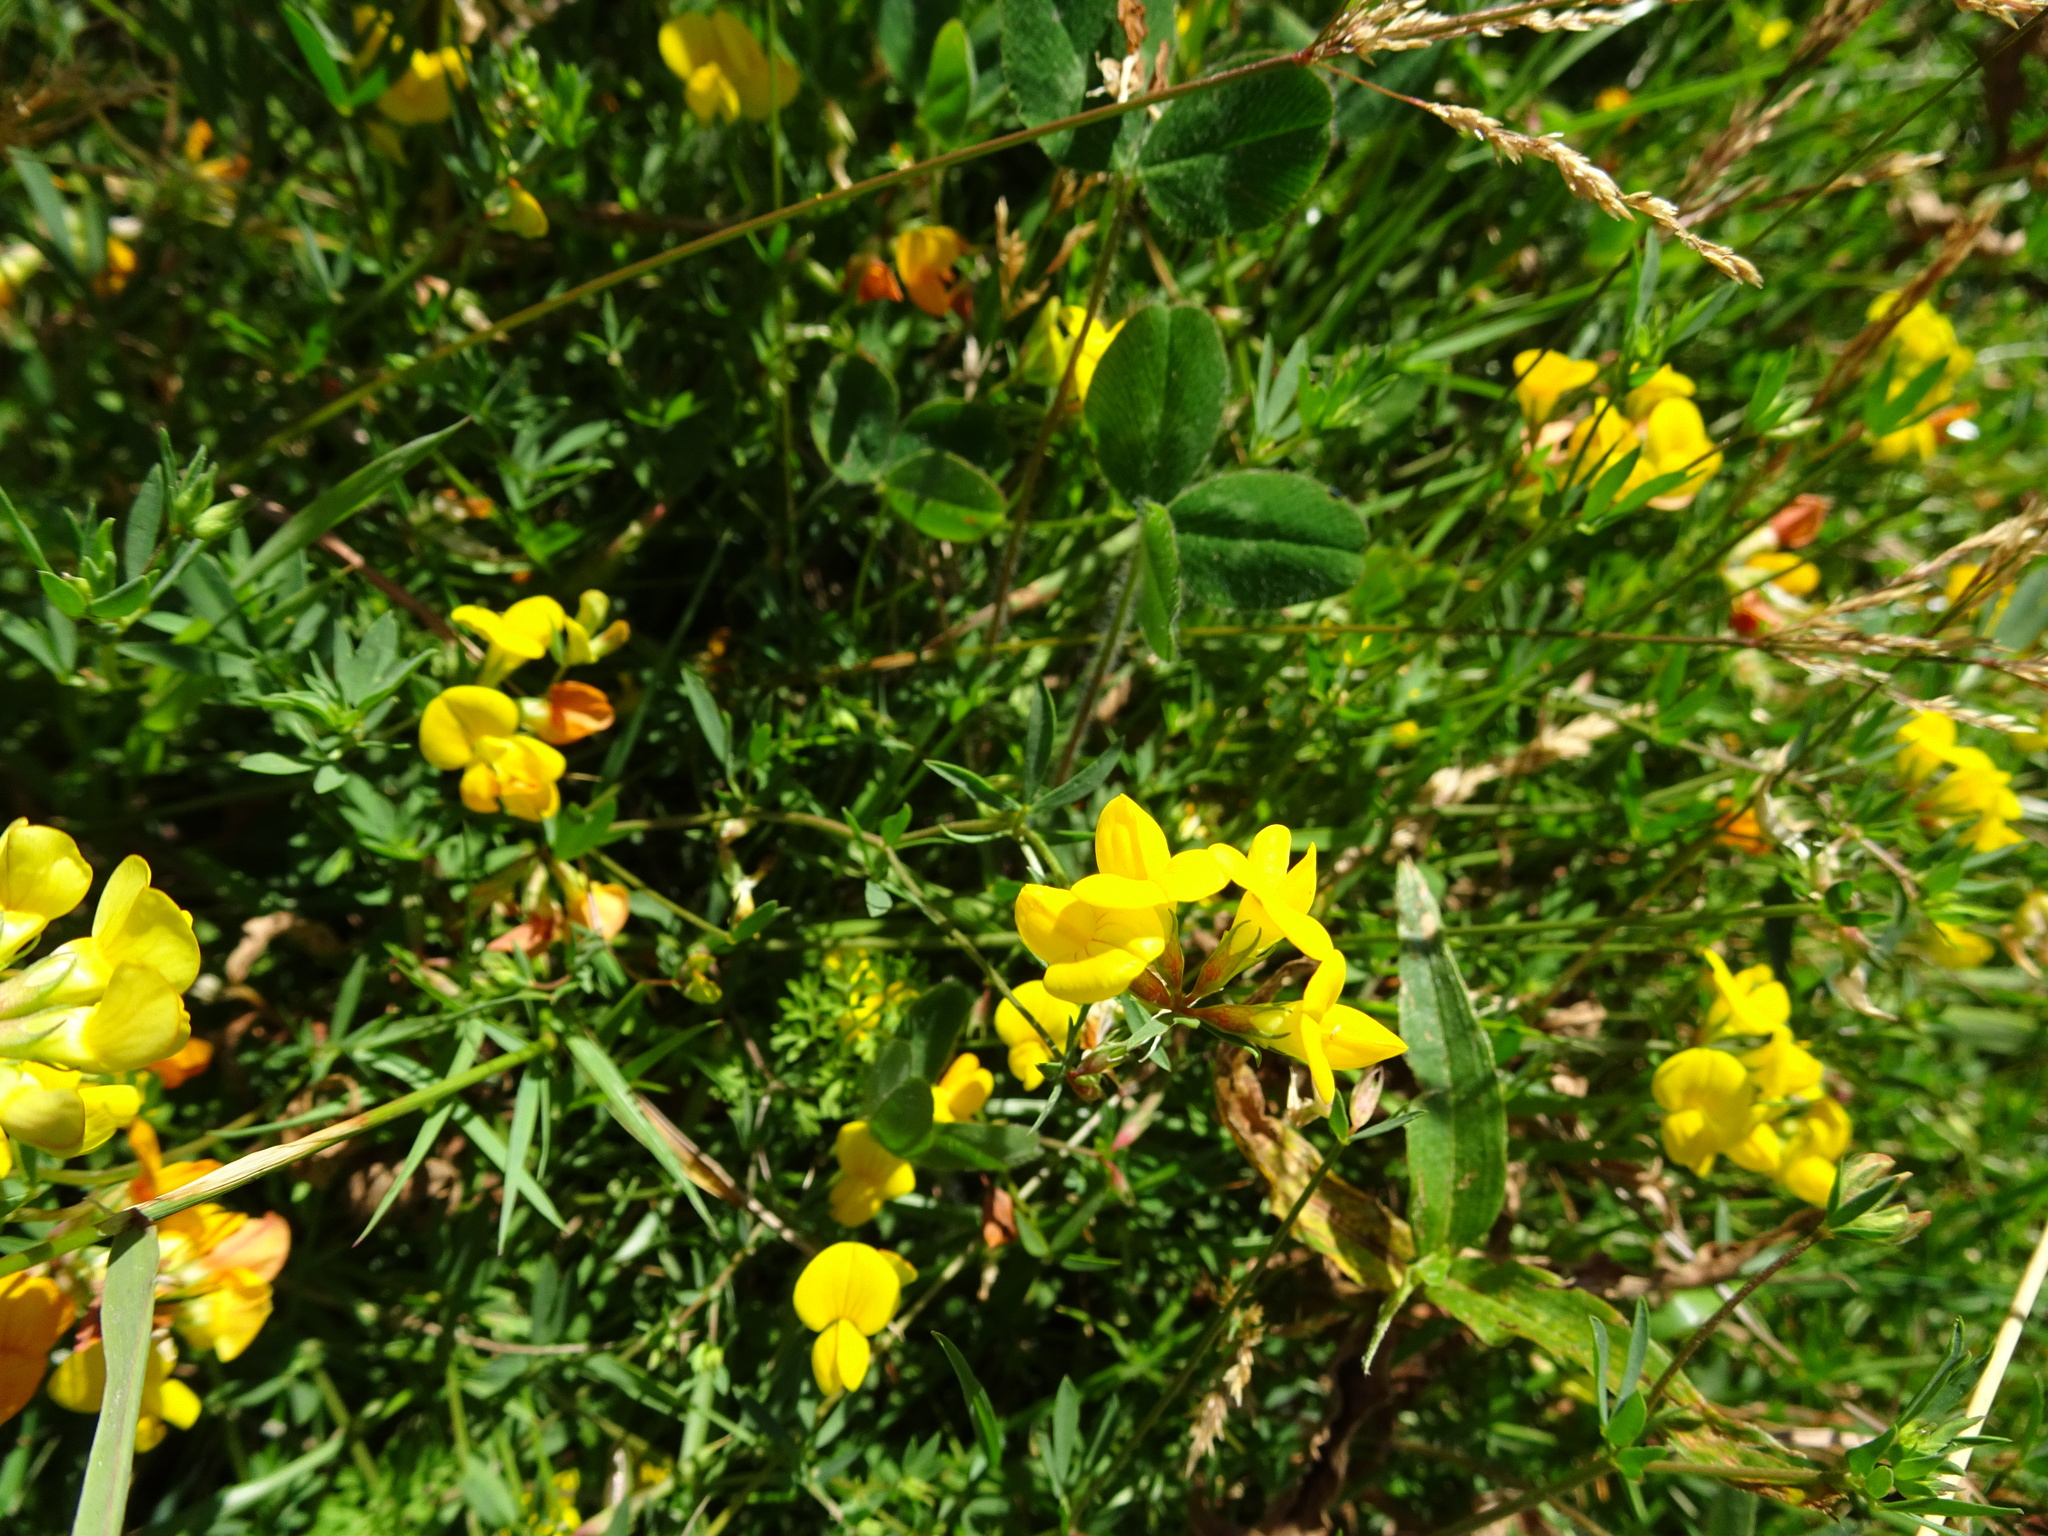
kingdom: Plantae
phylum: Tracheophyta
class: Magnoliopsida
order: Fabales
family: Fabaceae
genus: Lotus
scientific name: Lotus tenuis
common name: Narrow-leaved bird's-foot-trefoil
